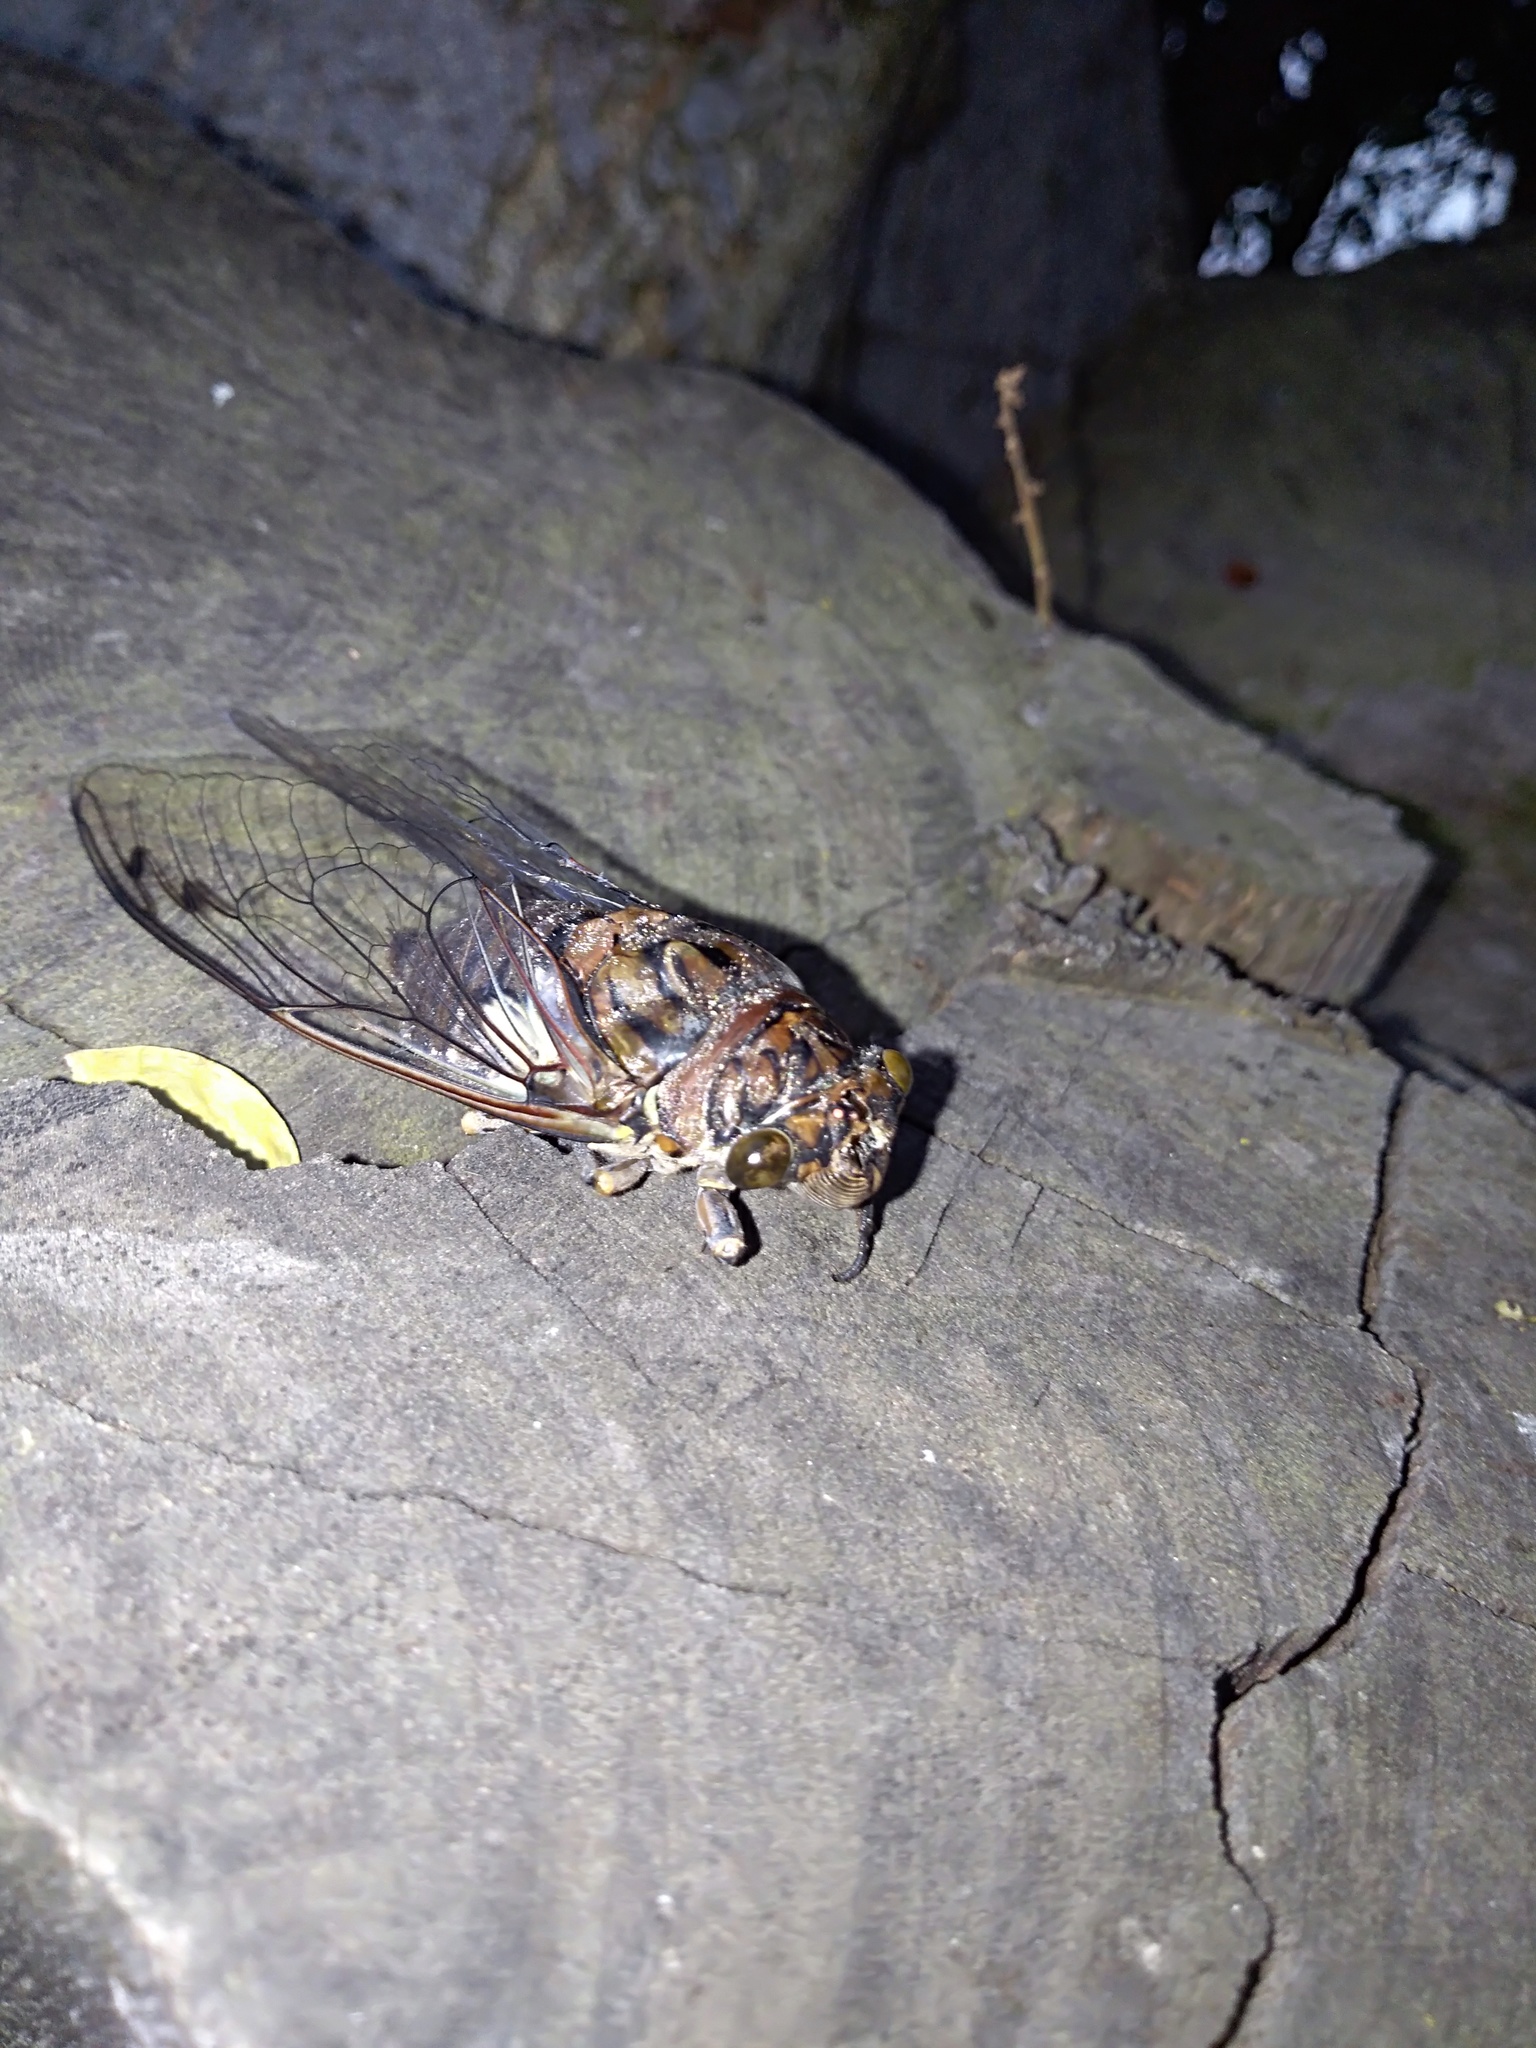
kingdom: Animalia
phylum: Arthropoda
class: Insecta
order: Hemiptera
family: Cicadidae
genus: Quesada
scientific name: Quesada gigas
